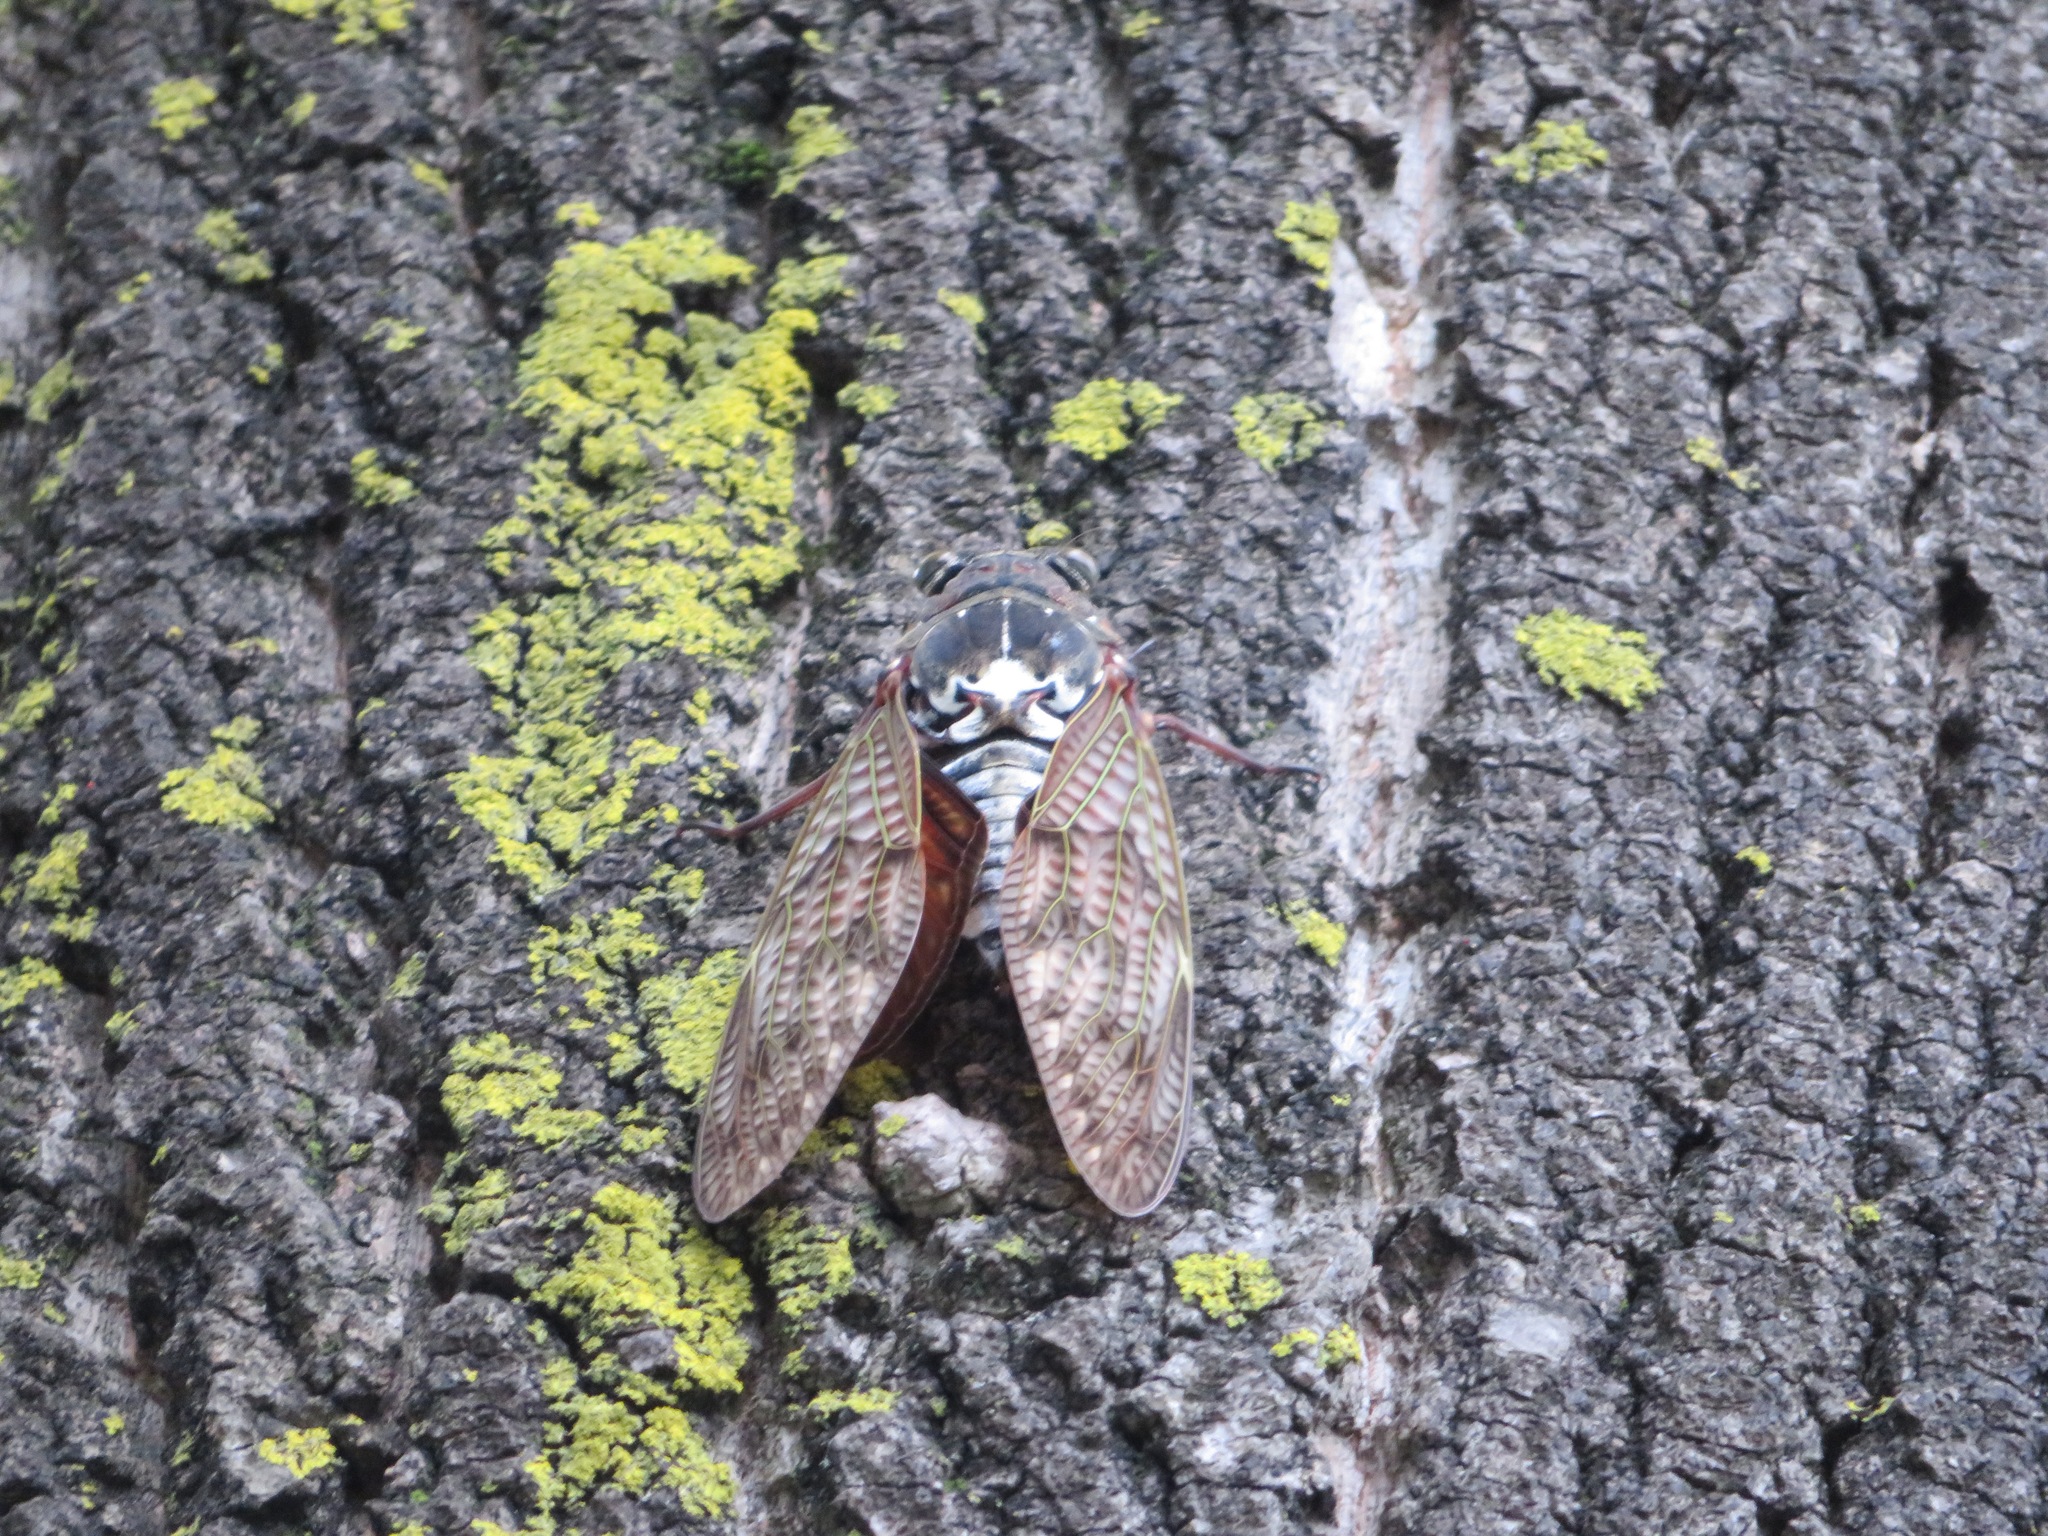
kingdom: Animalia
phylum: Arthropoda
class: Insecta
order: Hemiptera
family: Cicadidae
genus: Graptopsaltria
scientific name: Graptopsaltria nigrofuscata
